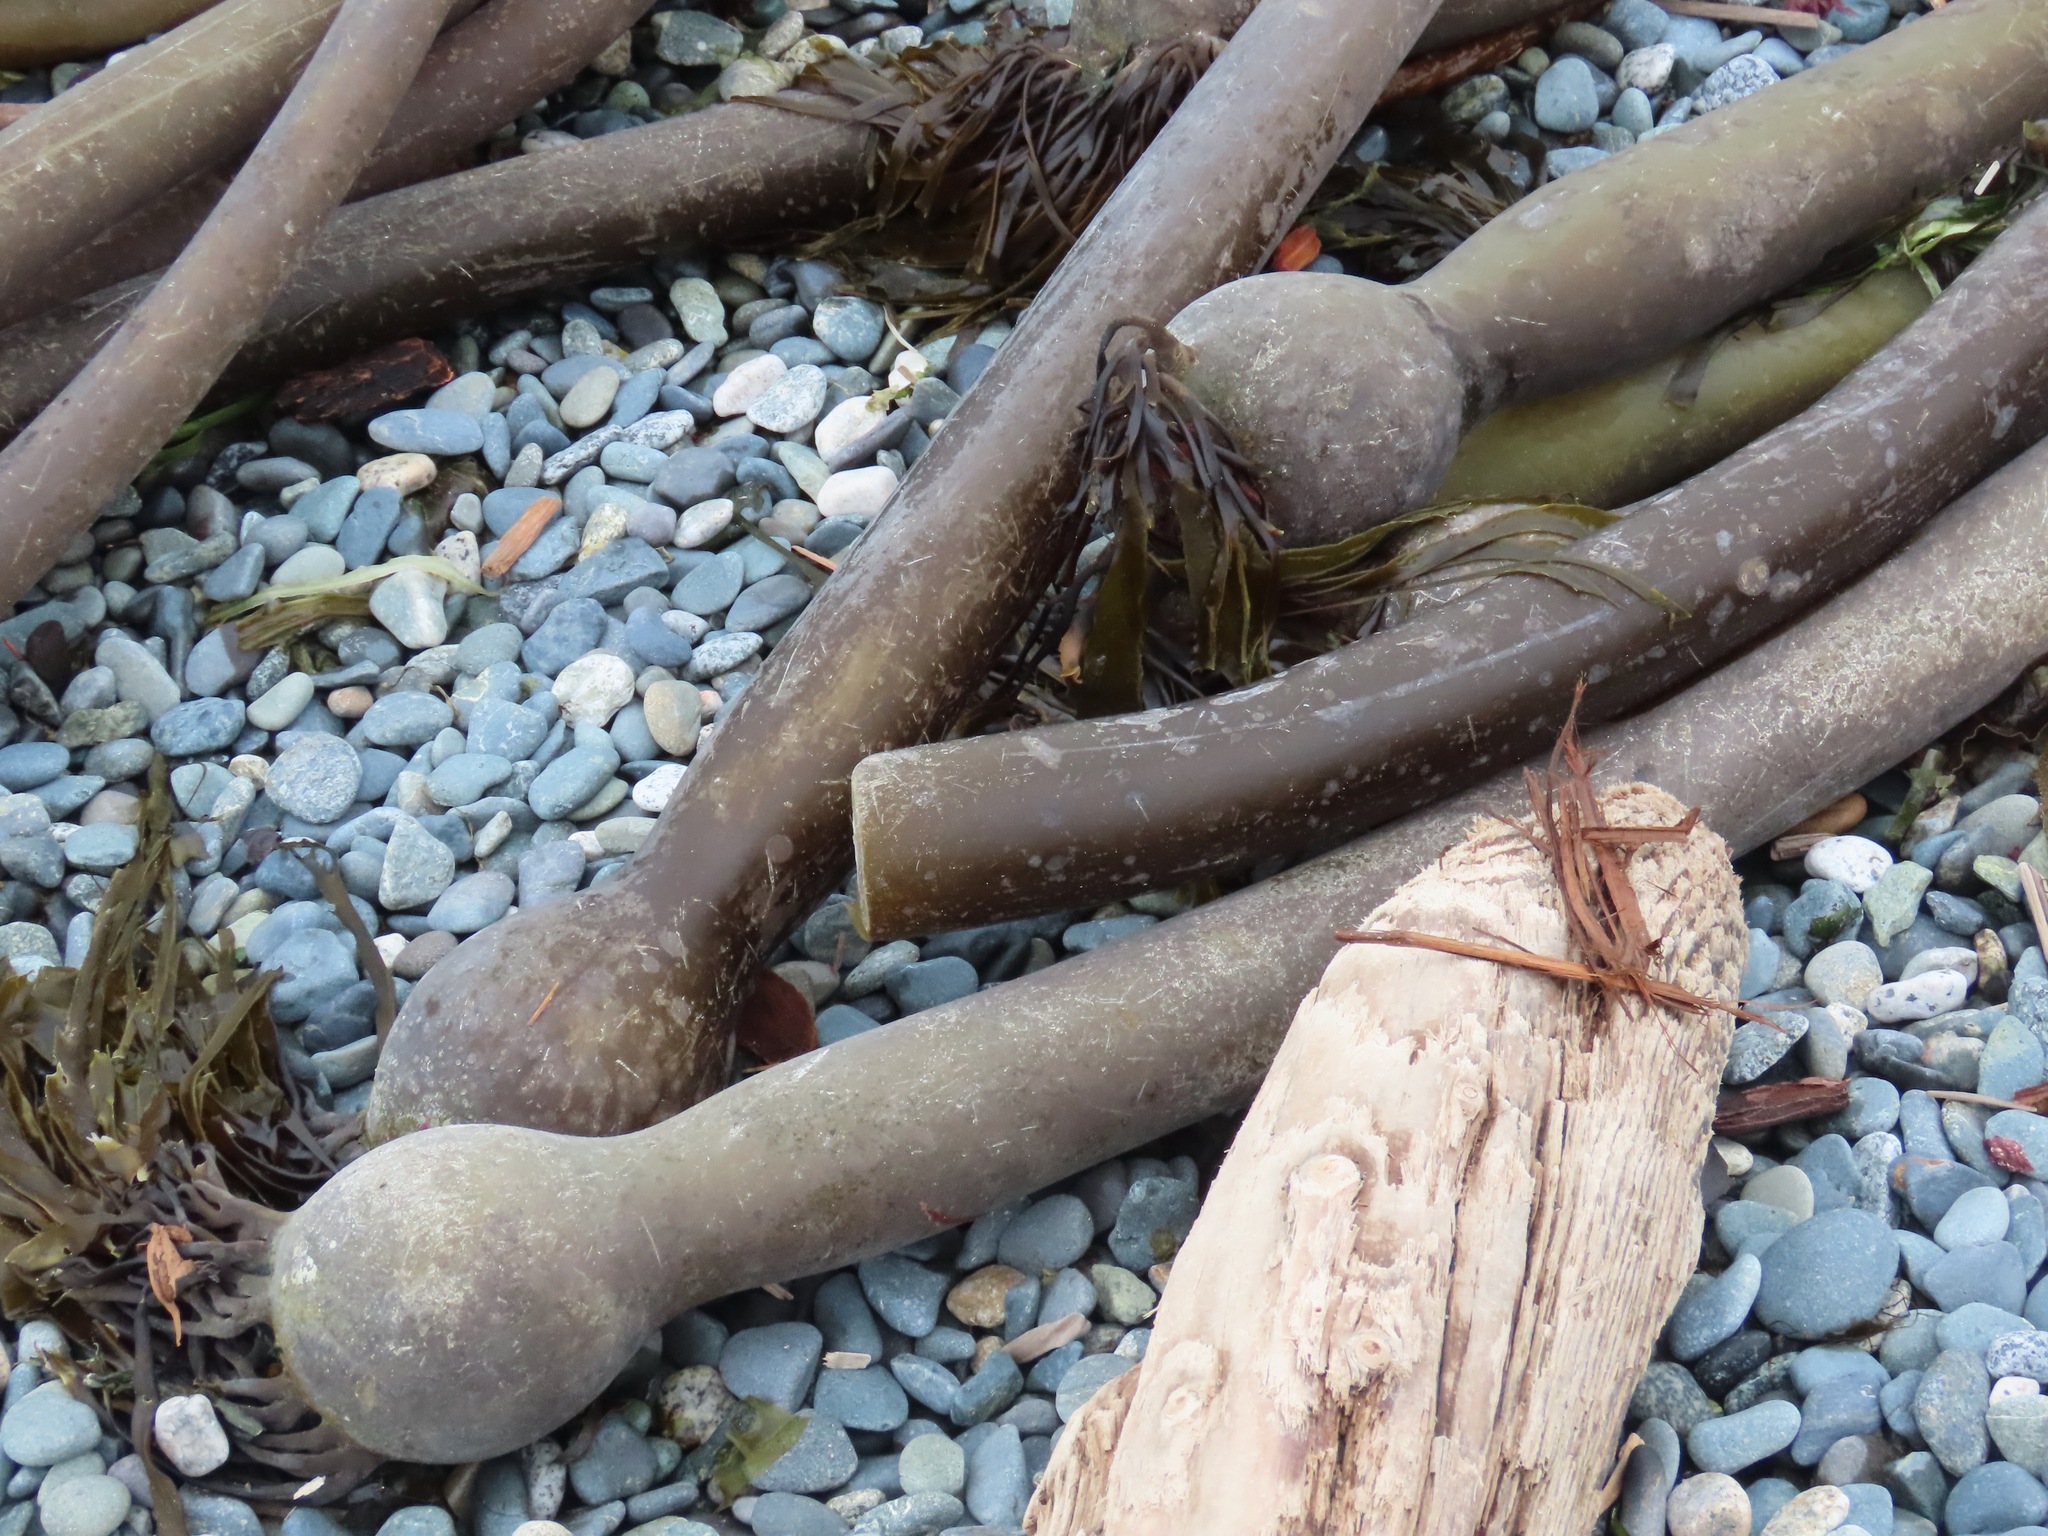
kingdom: Chromista
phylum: Ochrophyta
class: Phaeophyceae
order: Laminariales
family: Laminariaceae
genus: Nereocystis
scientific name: Nereocystis luetkeana
